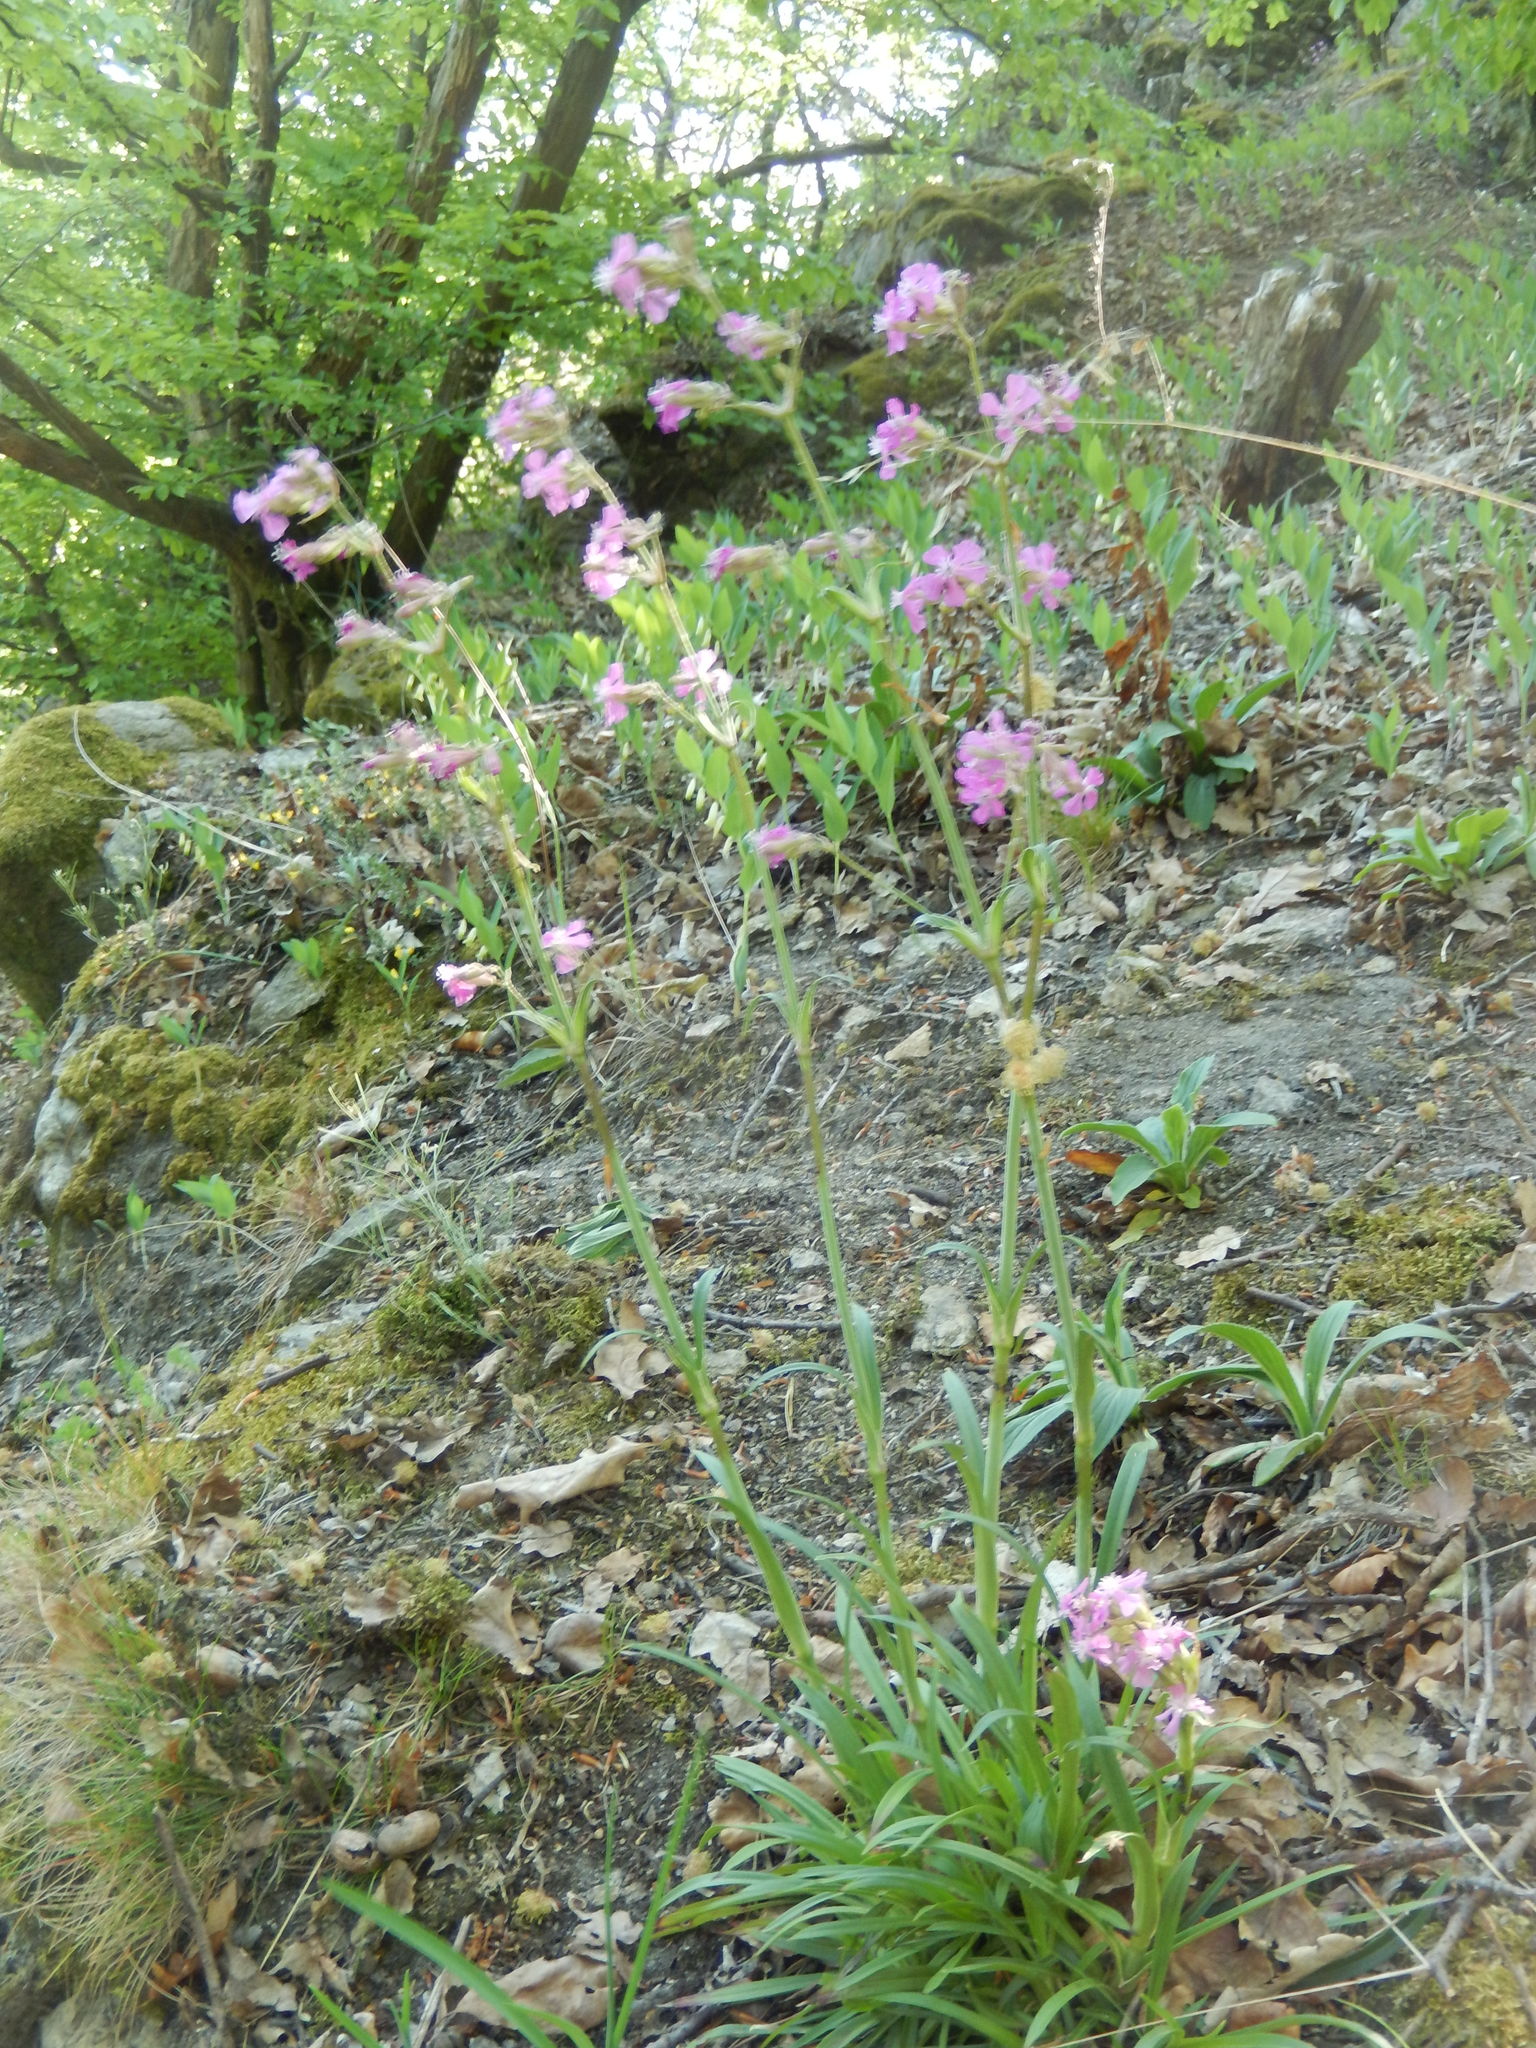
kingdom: Plantae
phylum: Tracheophyta
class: Magnoliopsida
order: Caryophyllales
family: Caryophyllaceae
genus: Viscaria
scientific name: Viscaria vulgaris
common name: Clammy campion
